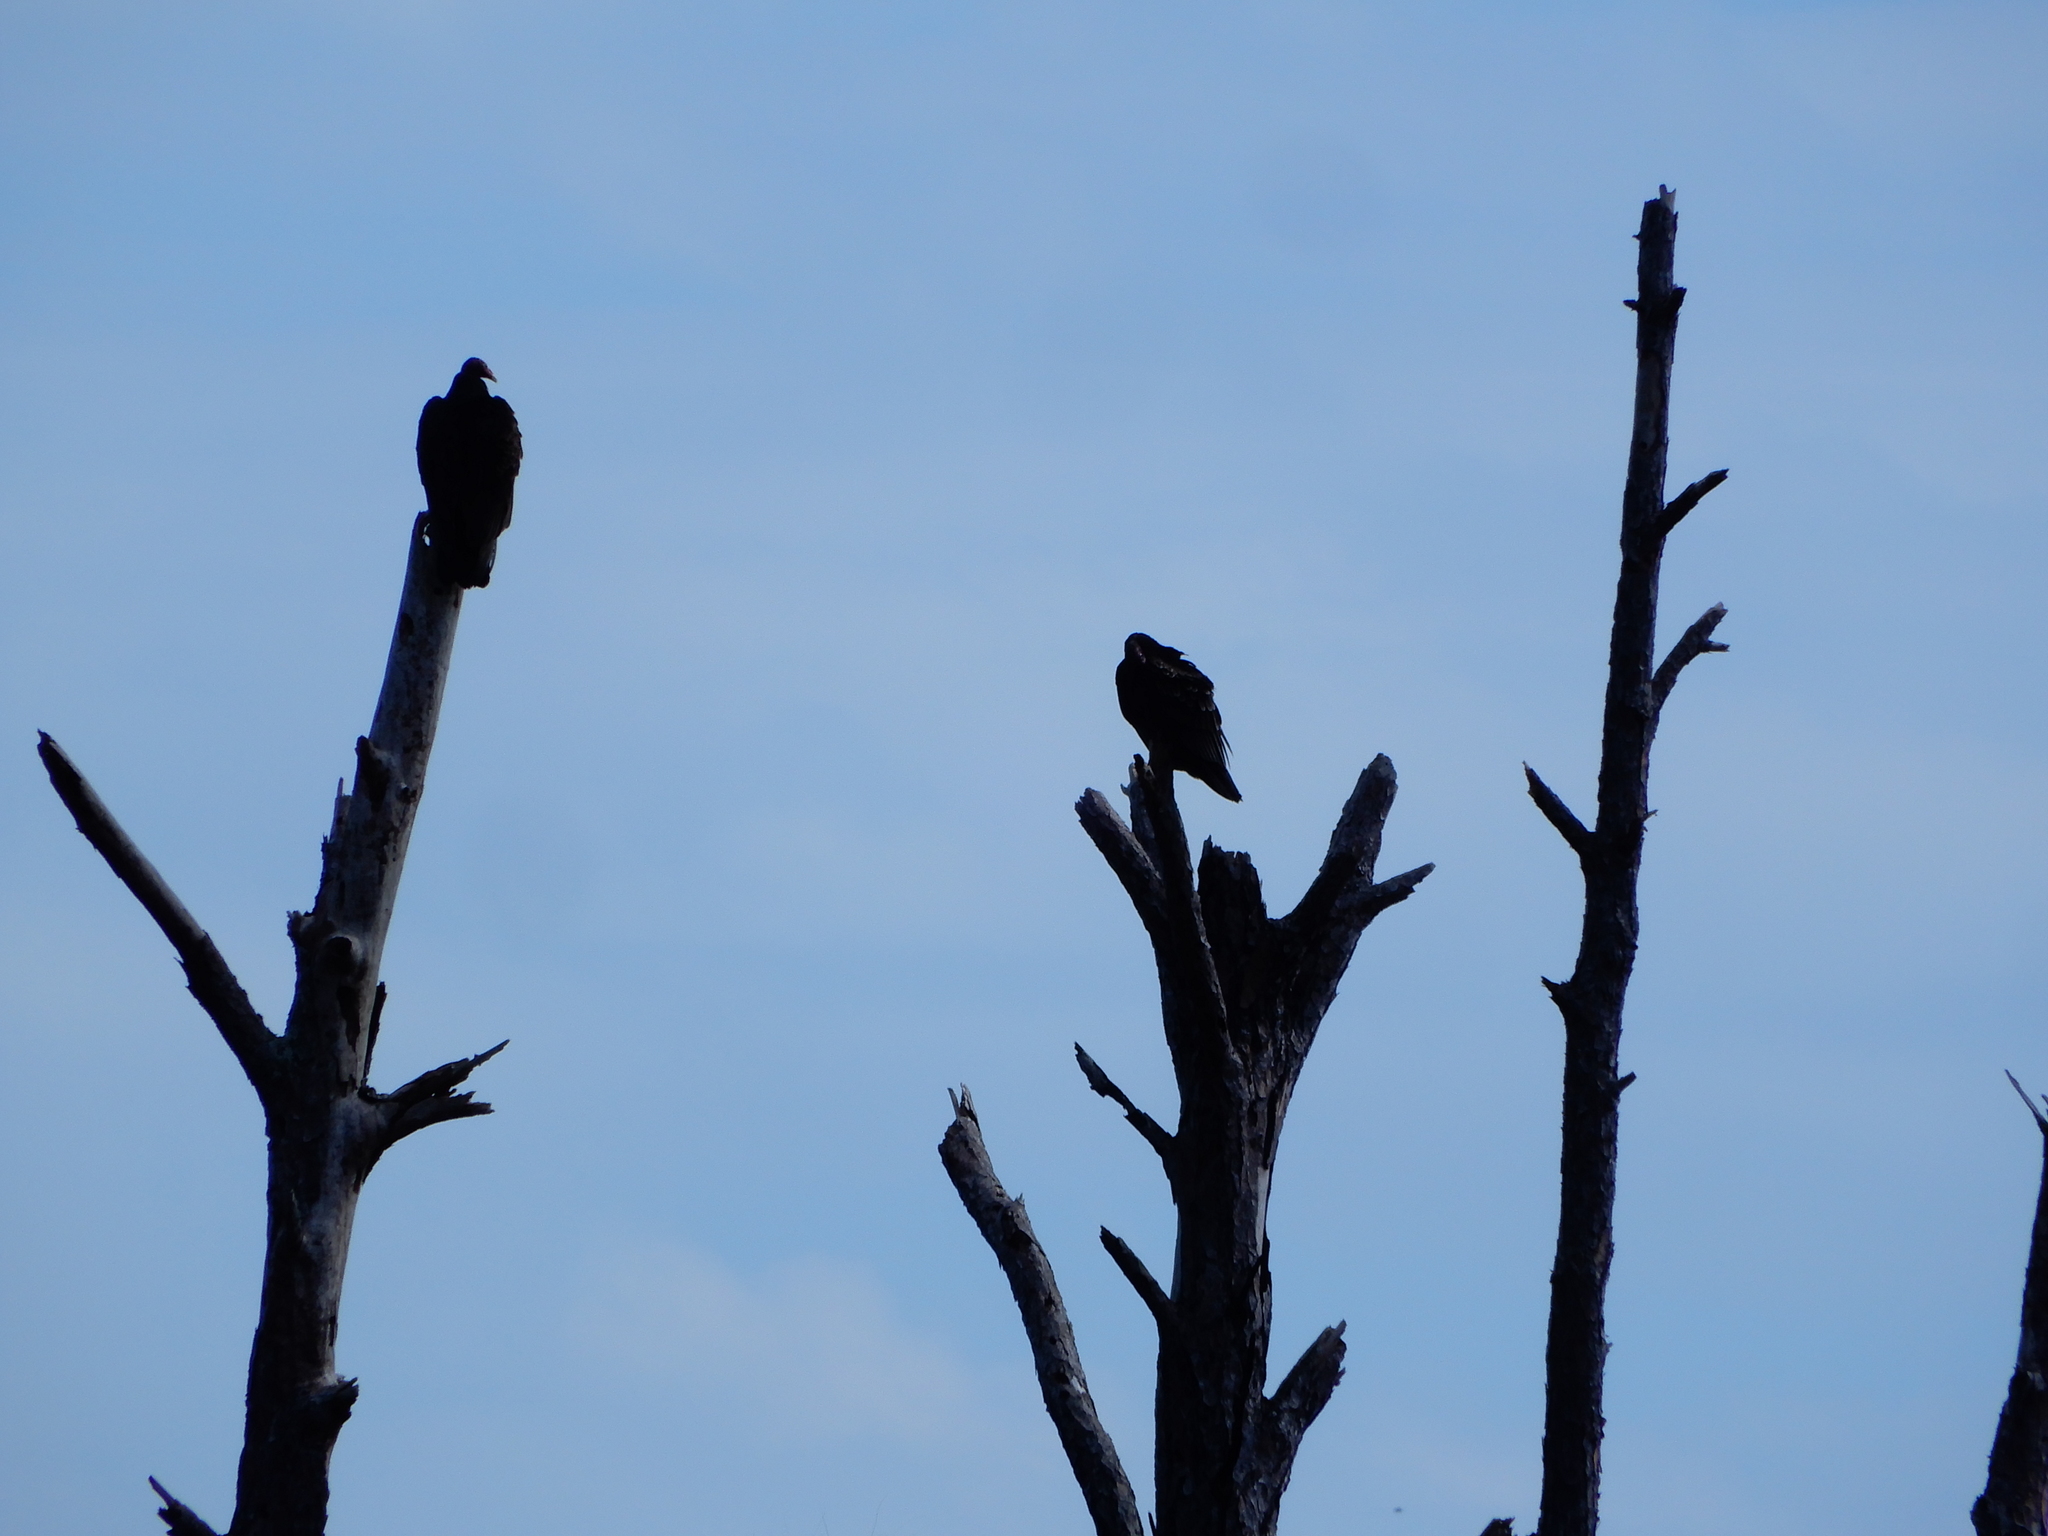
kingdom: Animalia
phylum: Chordata
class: Aves
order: Accipitriformes
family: Cathartidae
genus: Cathartes
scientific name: Cathartes aura
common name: Turkey vulture
